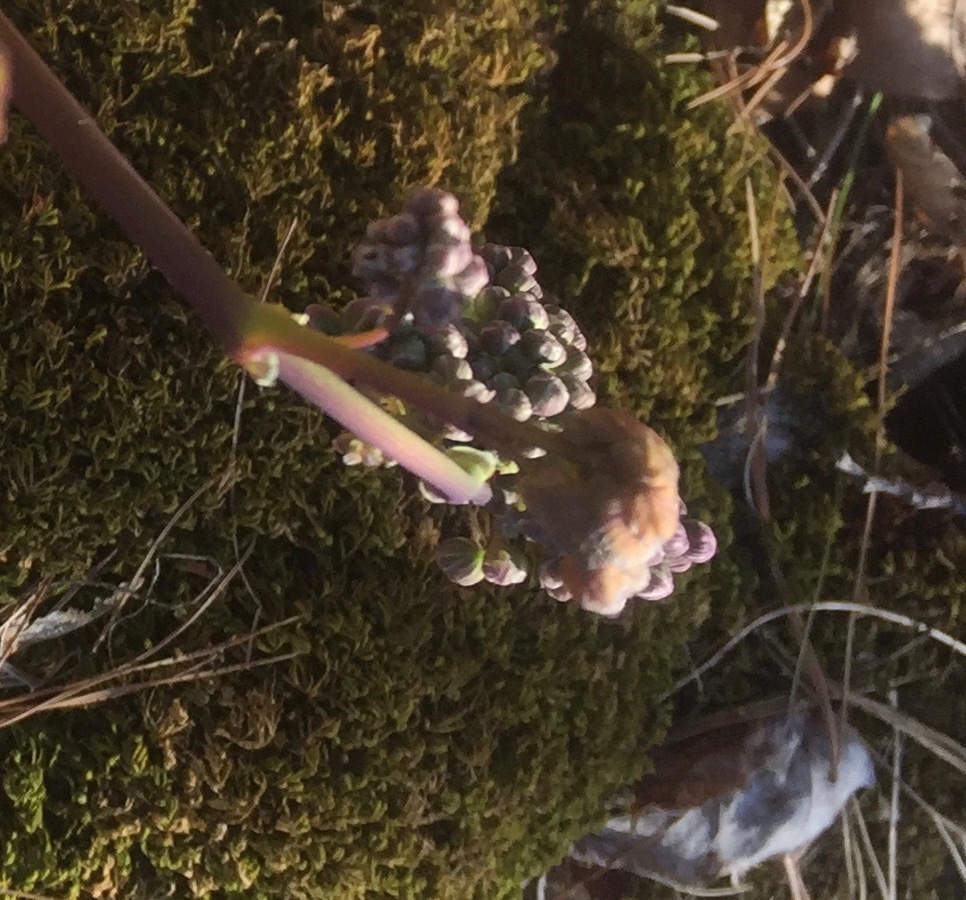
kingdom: Plantae
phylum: Tracheophyta
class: Magnoliopsida
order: Ranunculales
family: Ranunculaceae
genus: Thalictrum
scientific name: Thalictrum dioicum
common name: Early meadow-rue
